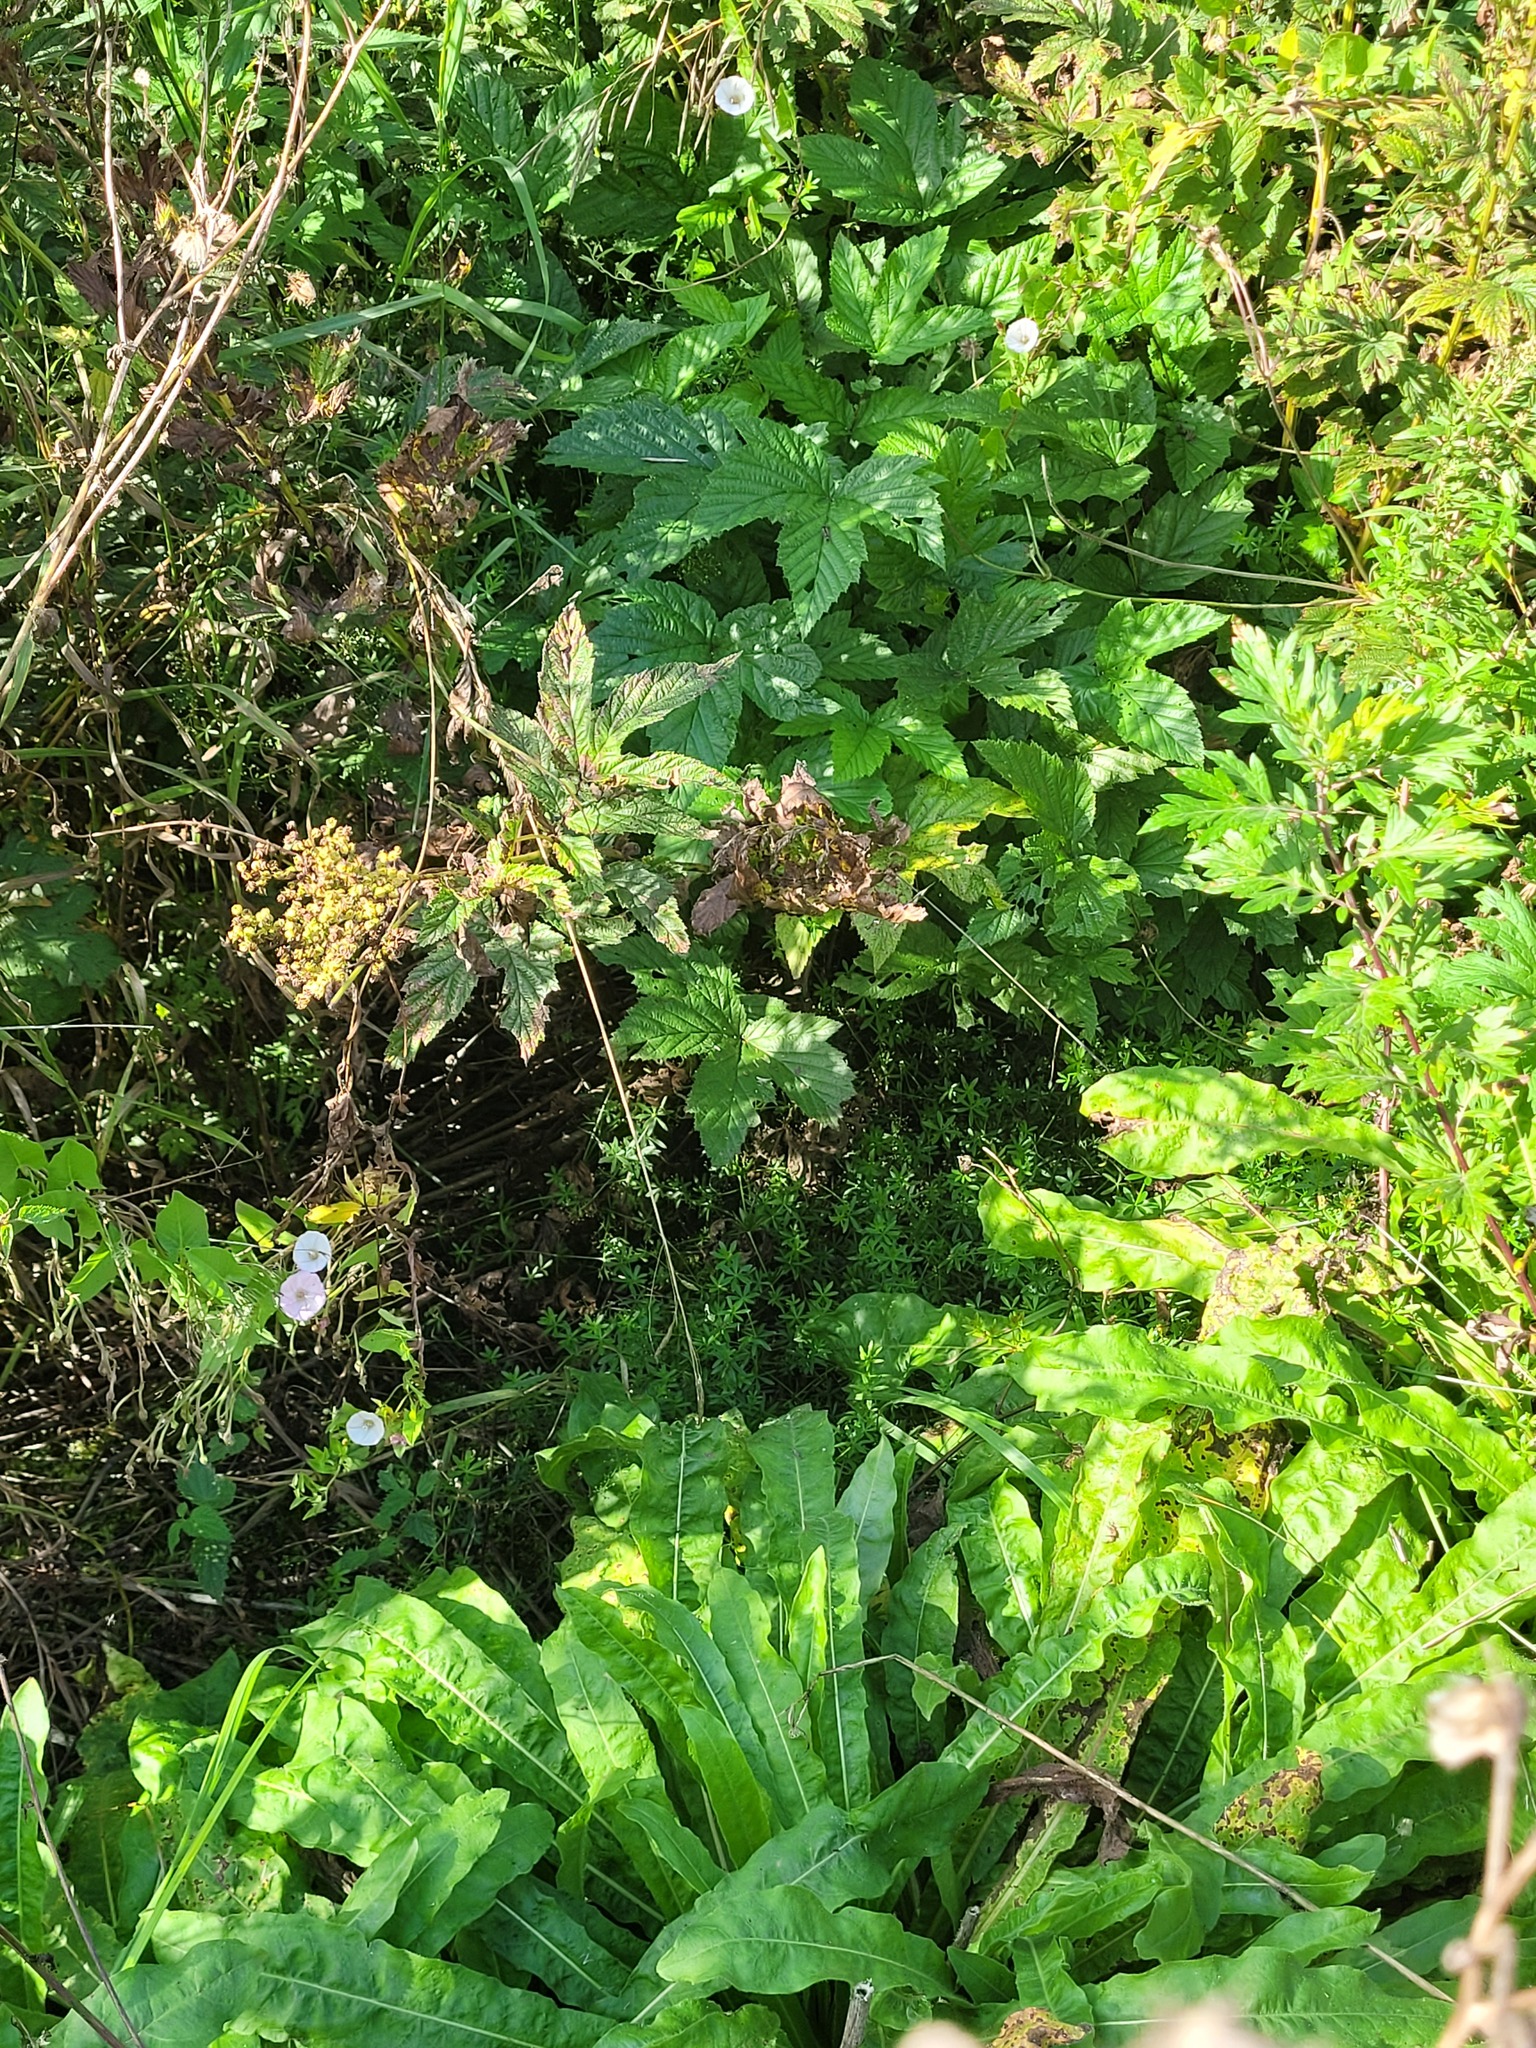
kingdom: Plantae
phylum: Tracheophyta
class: Magnoliopsida
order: Gentianales
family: Rubiaceae
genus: Galium
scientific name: Galium mollugo
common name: Hedge bedstraw
